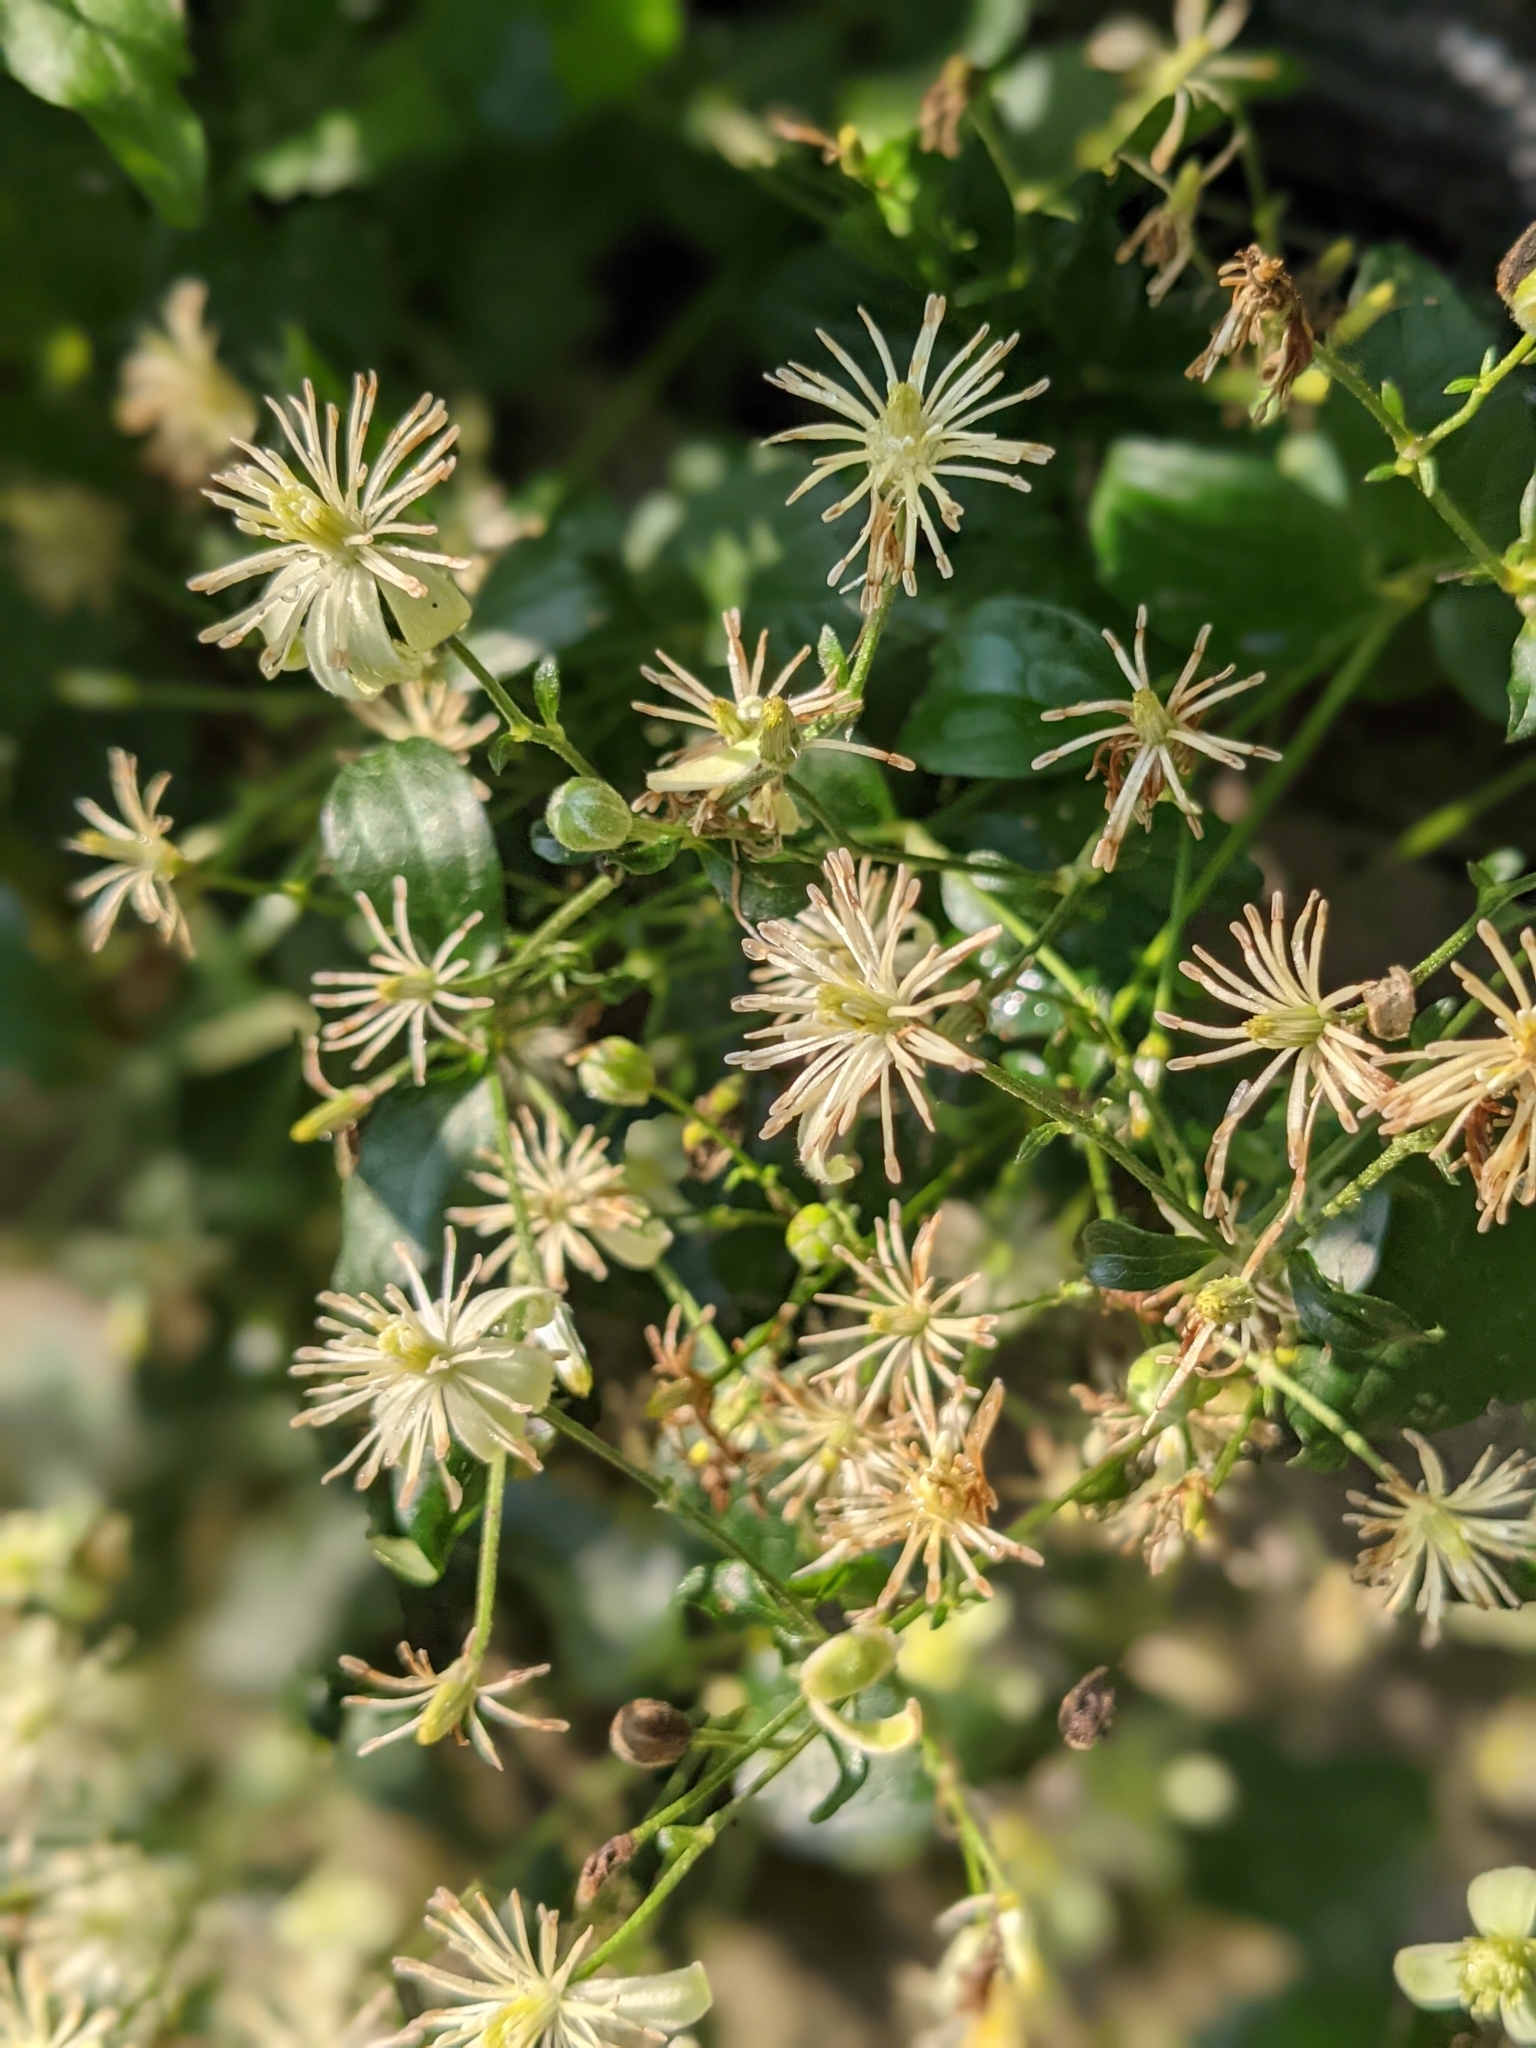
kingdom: Plantae
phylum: Tracheophyta
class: Magnoliopsida
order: Ranunculales
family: Ranunculaceae
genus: Clematis
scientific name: Clematis vitalba
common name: Evergreen clematis
